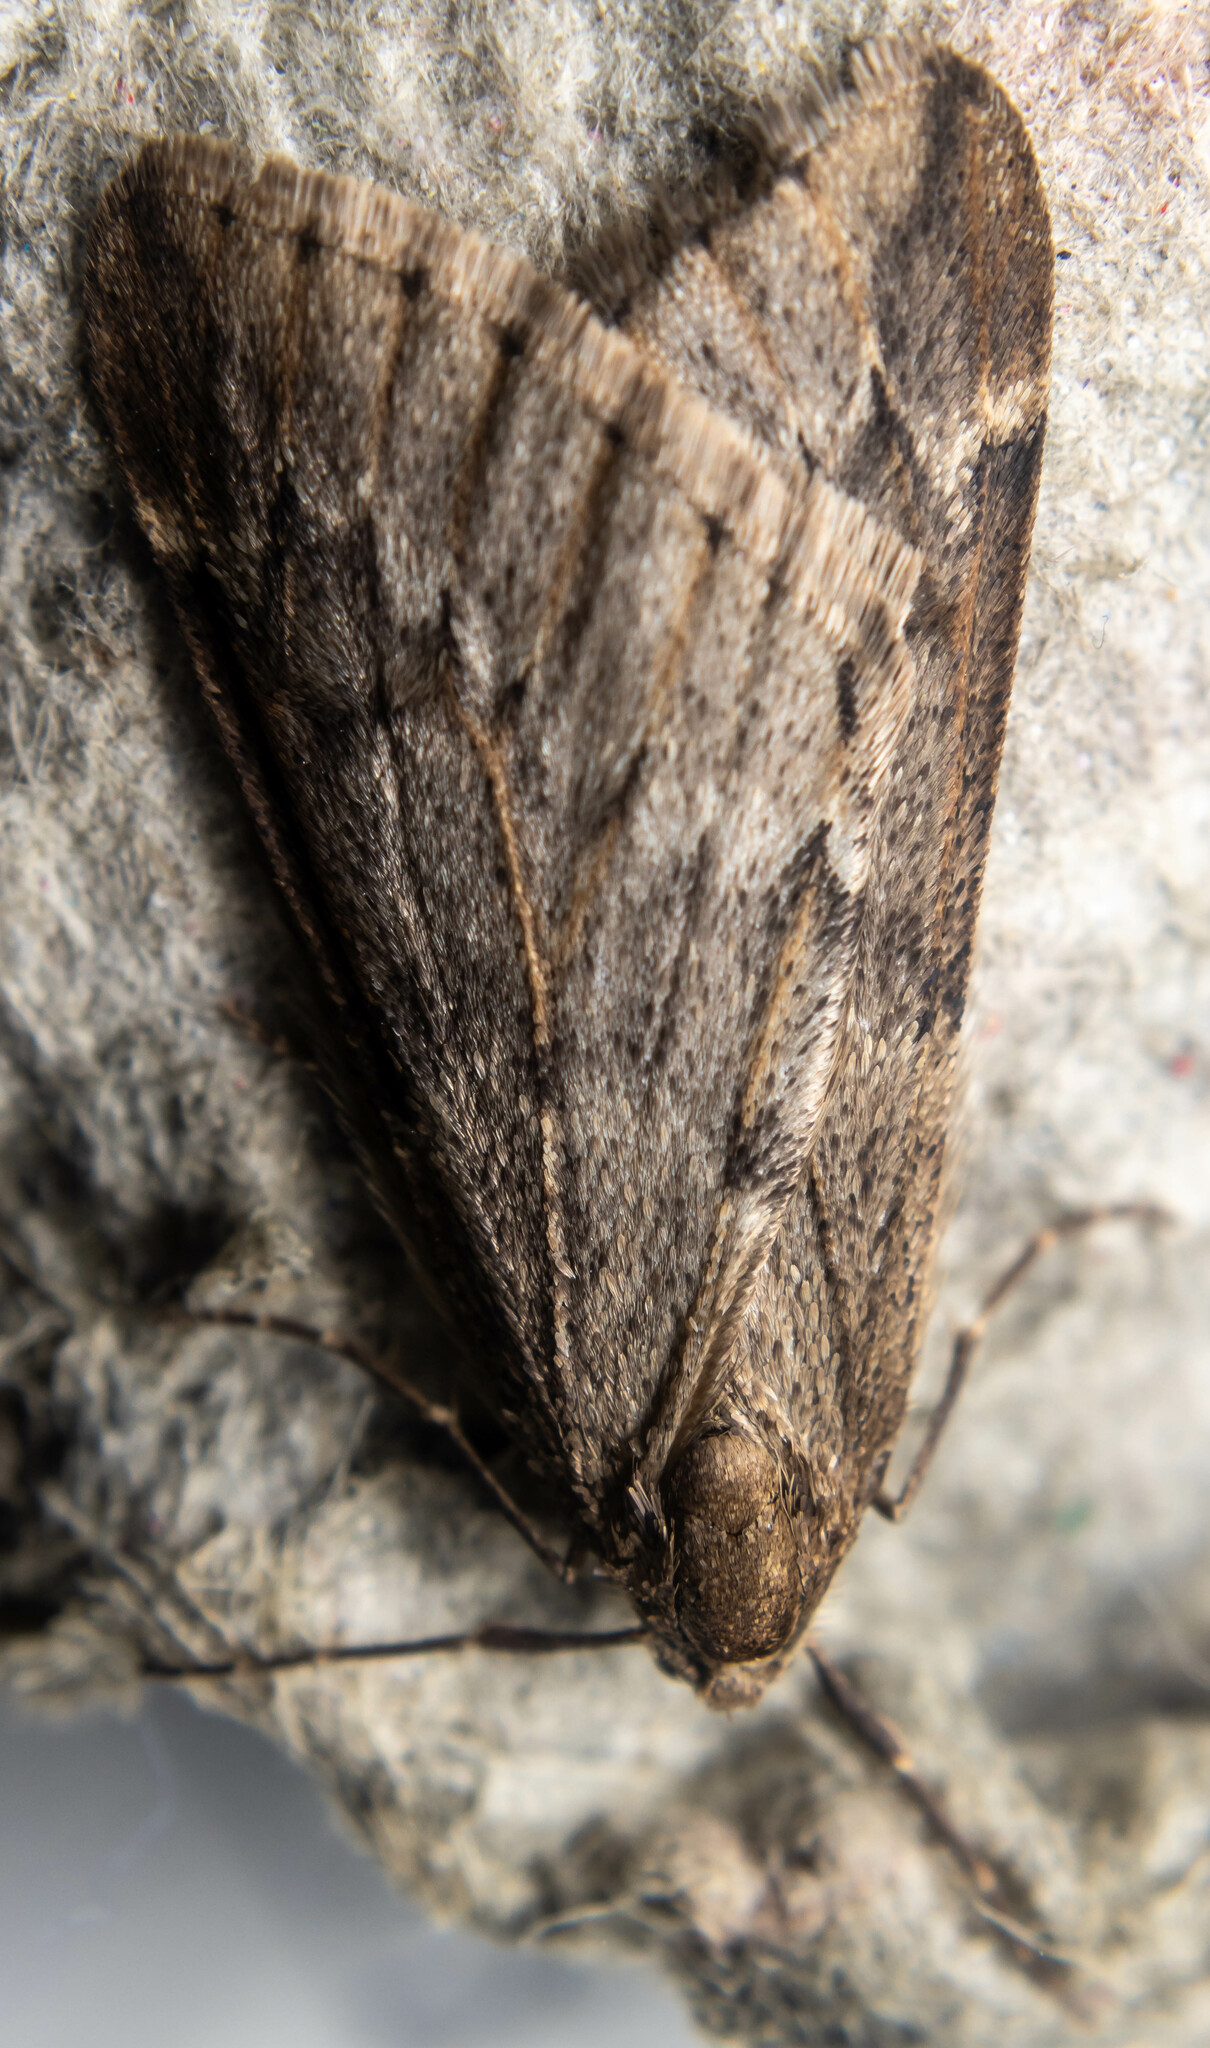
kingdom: Animalia
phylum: Arthropoda
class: Insecta
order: Lepidoptera
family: Geometridae
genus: Alsophila
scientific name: Alsophila aescularia
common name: March moth
